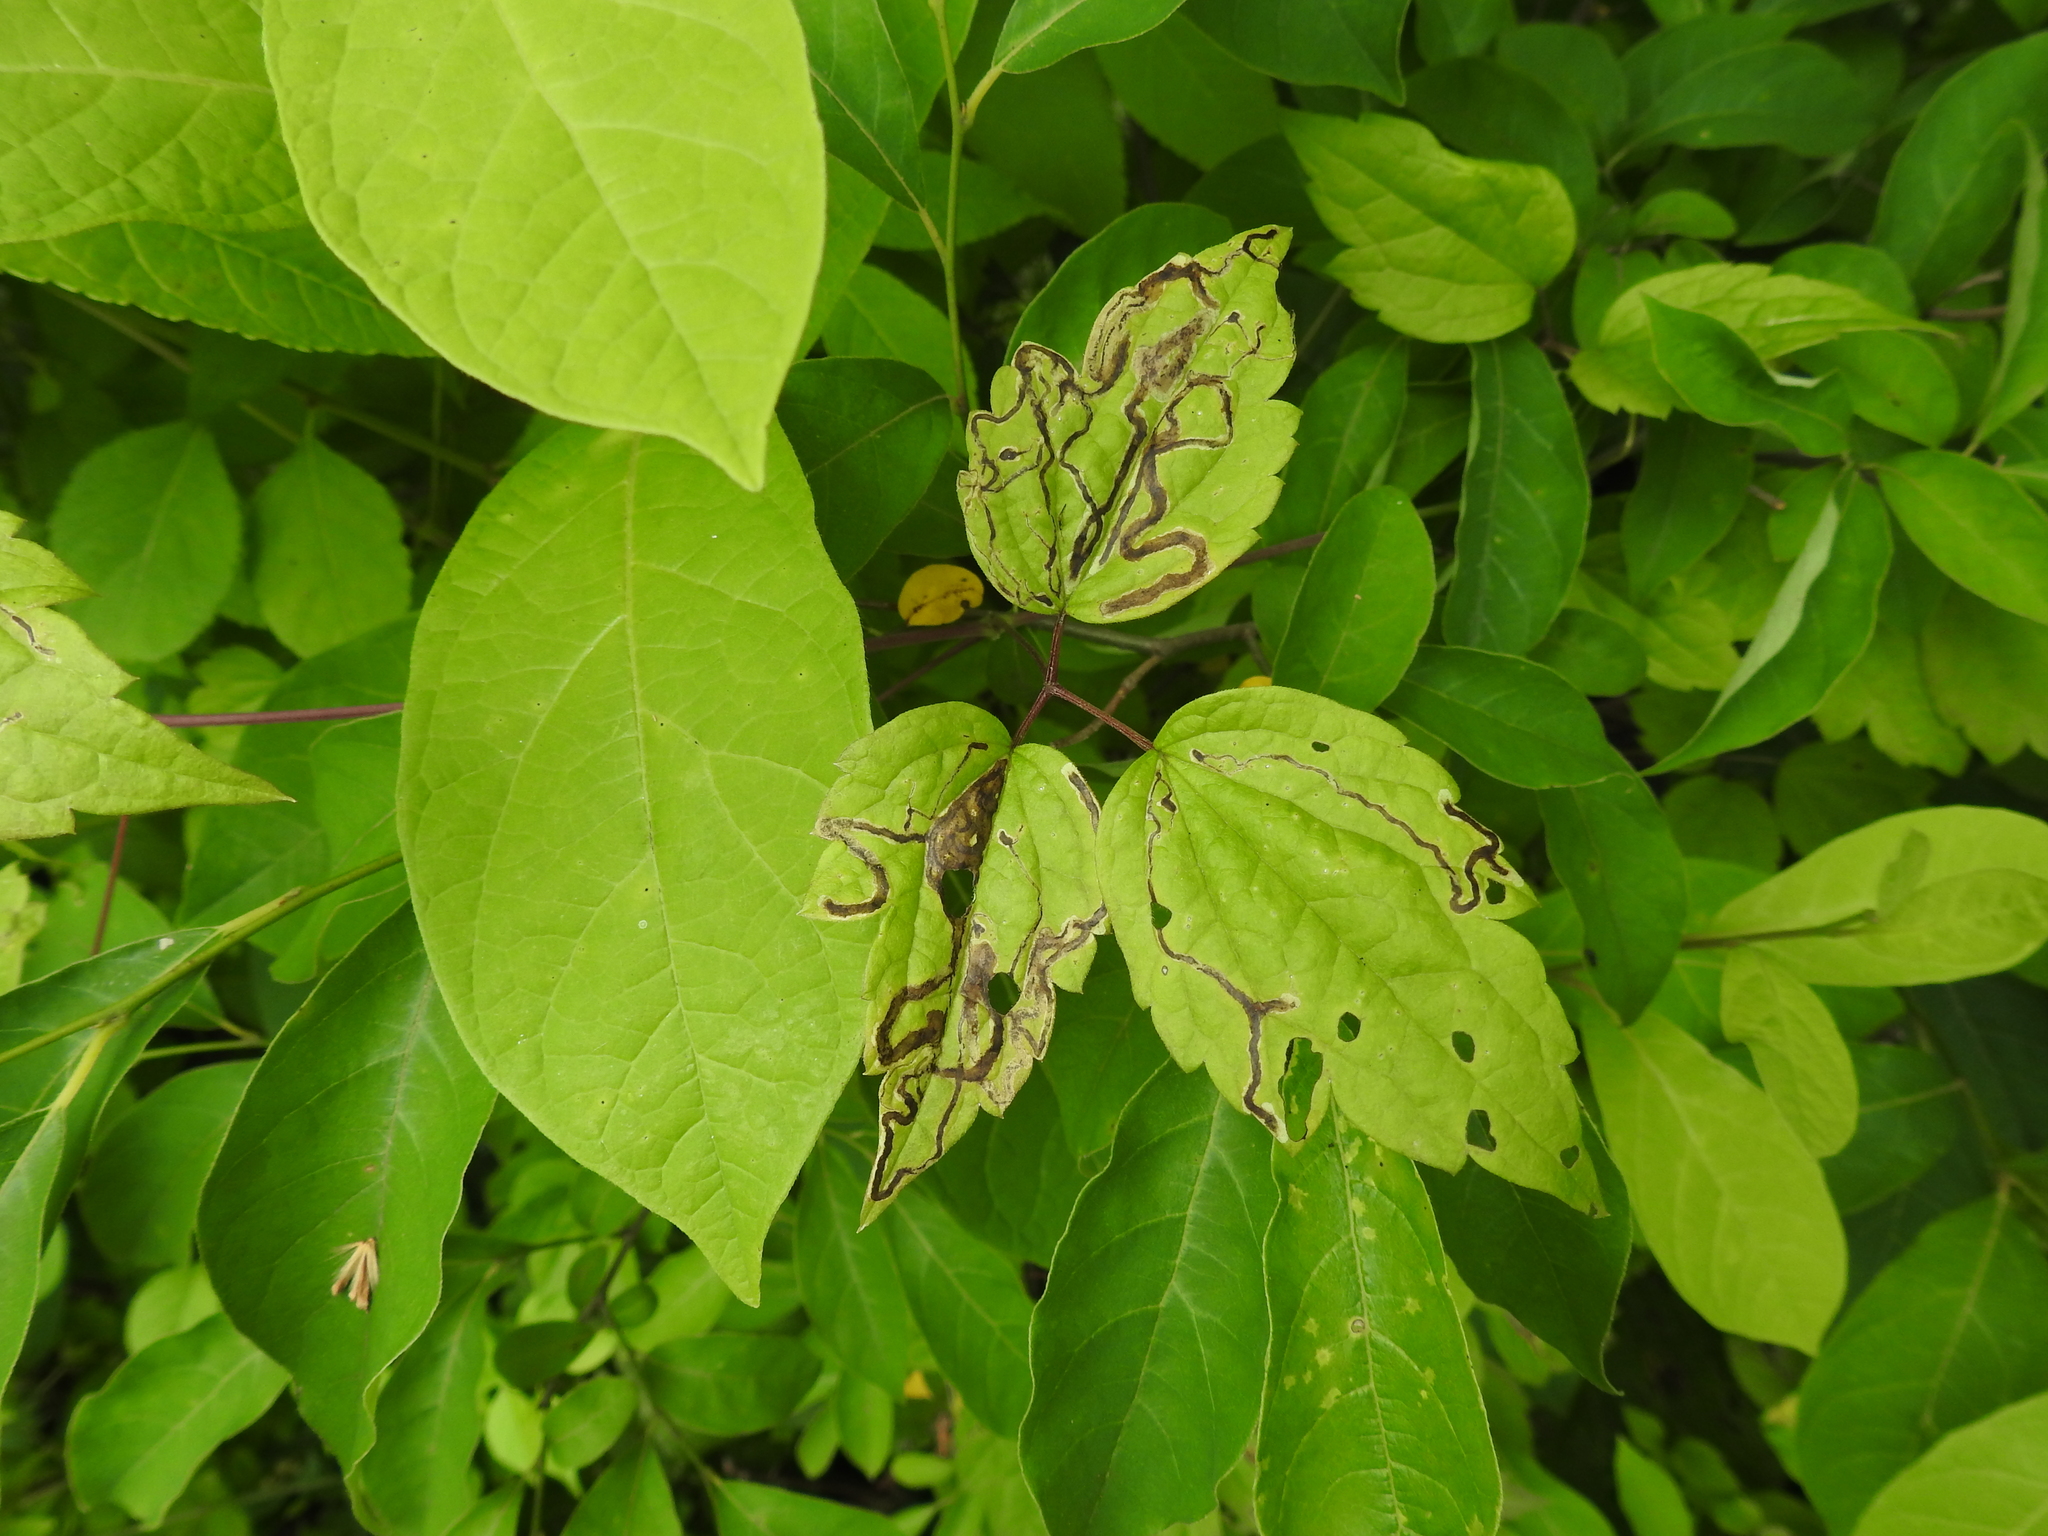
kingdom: Animalia
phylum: Arthropoda
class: Insecta
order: Diptera
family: Agromyzidae
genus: Phytomyza
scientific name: Phytomyza loewii
